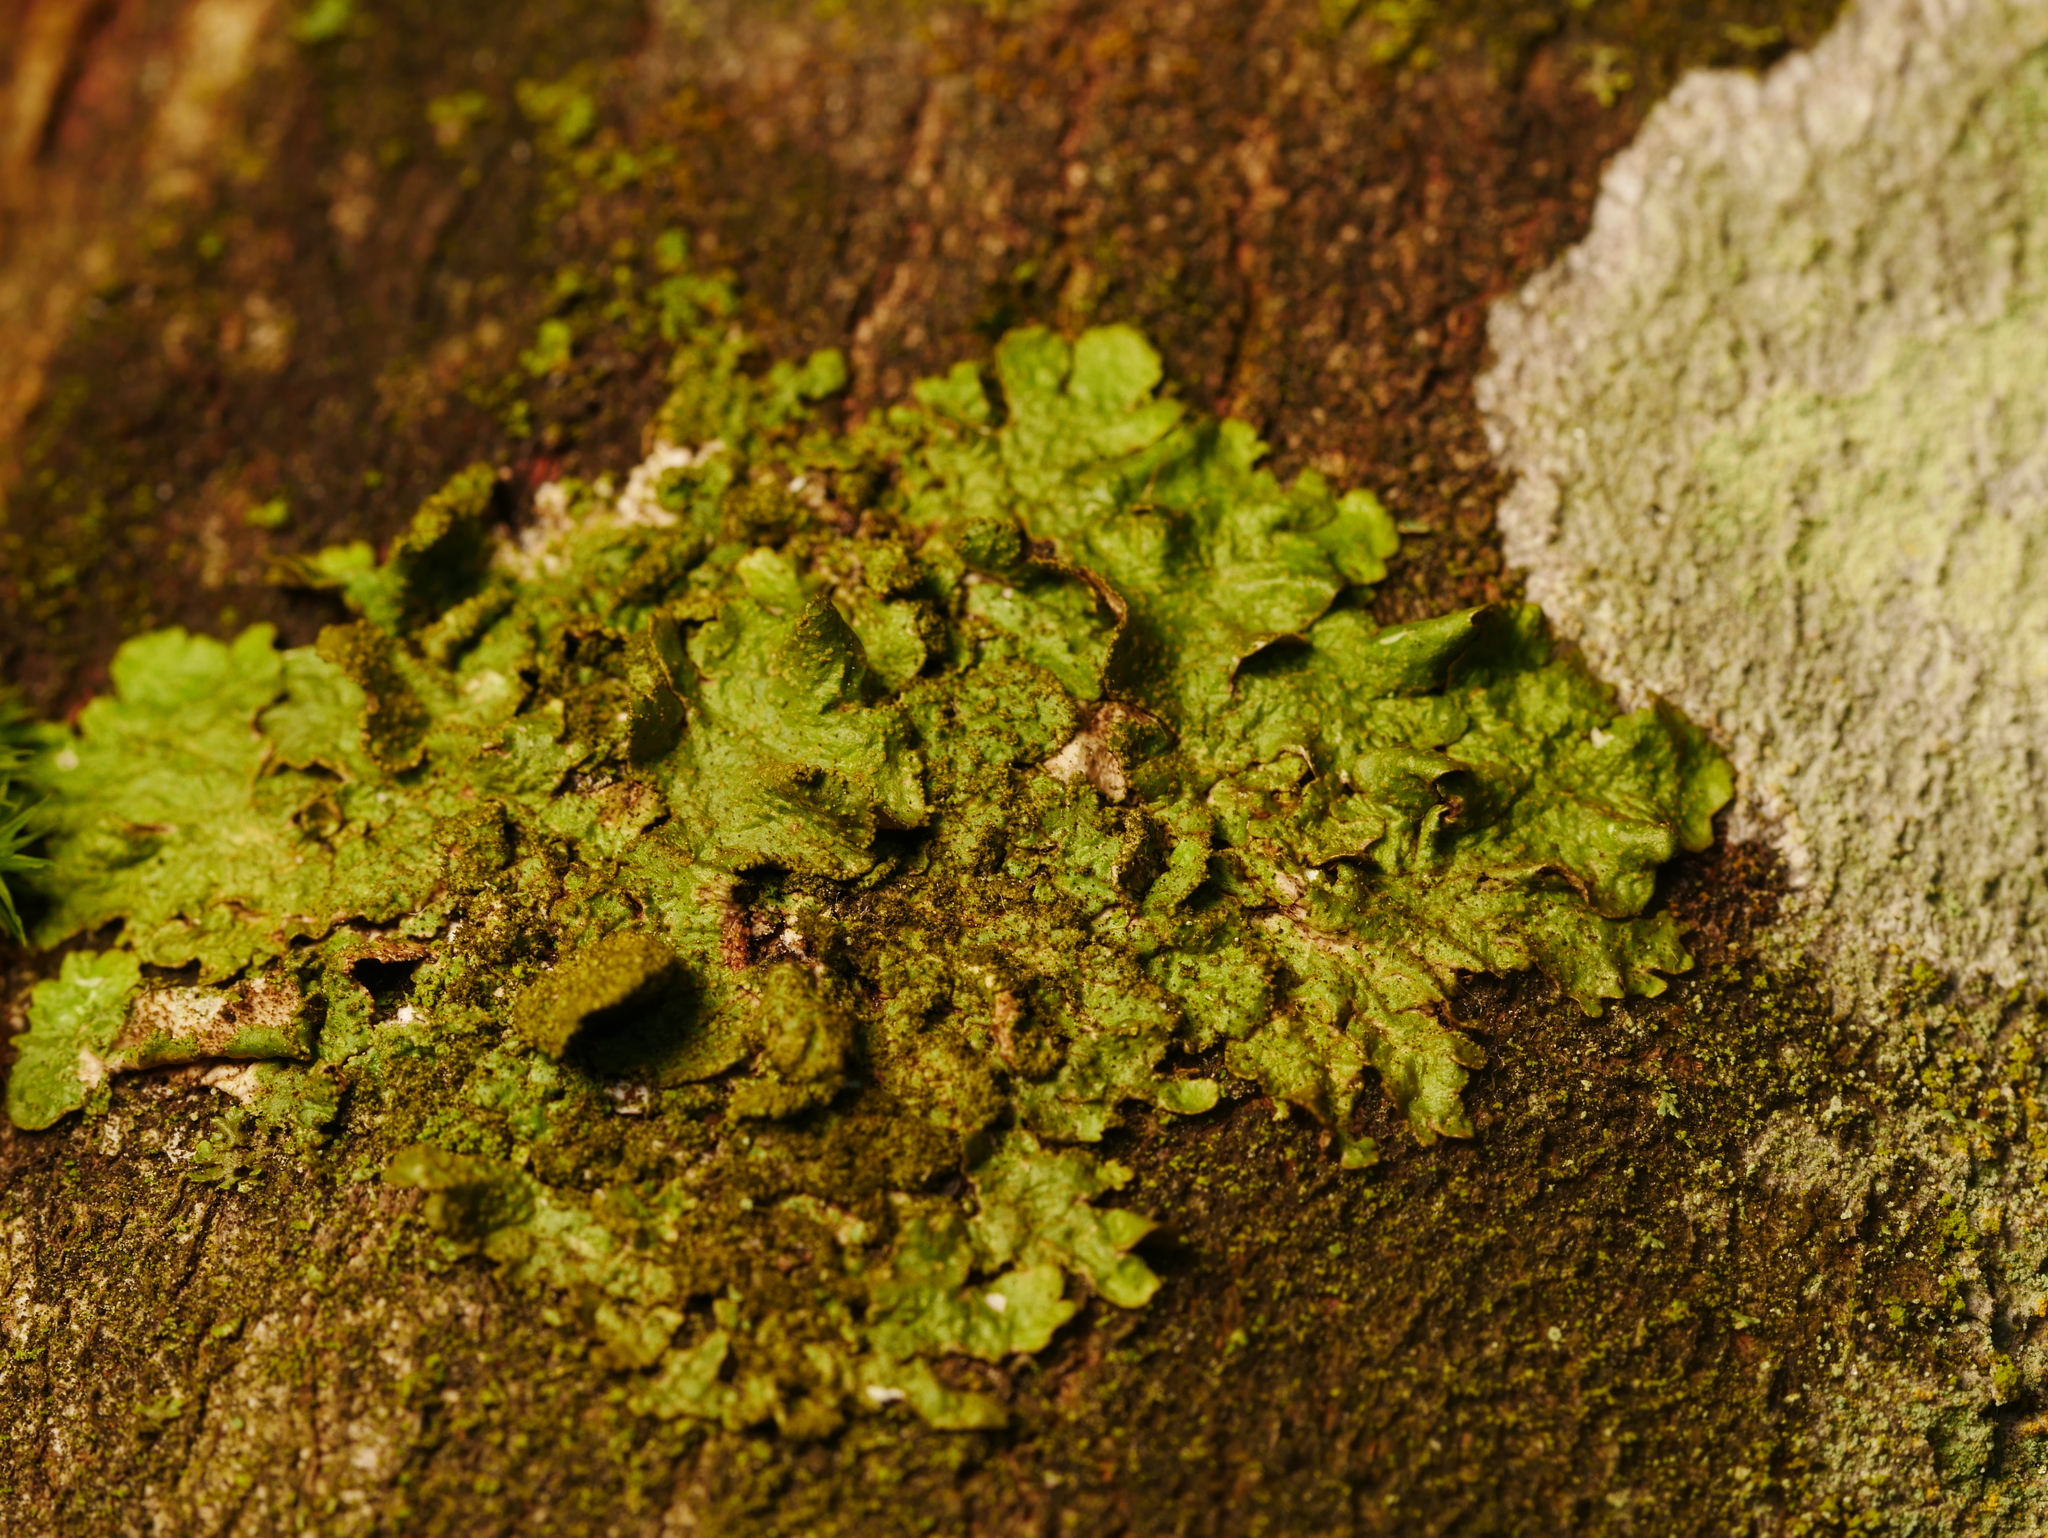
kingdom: Fungi
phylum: Ascomycota
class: Lecanoromycetes
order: Lecanorales
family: Parmeliaceae
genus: Melanelixia
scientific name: Melanelixia subaurifera
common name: Abraded camouflage lichen
